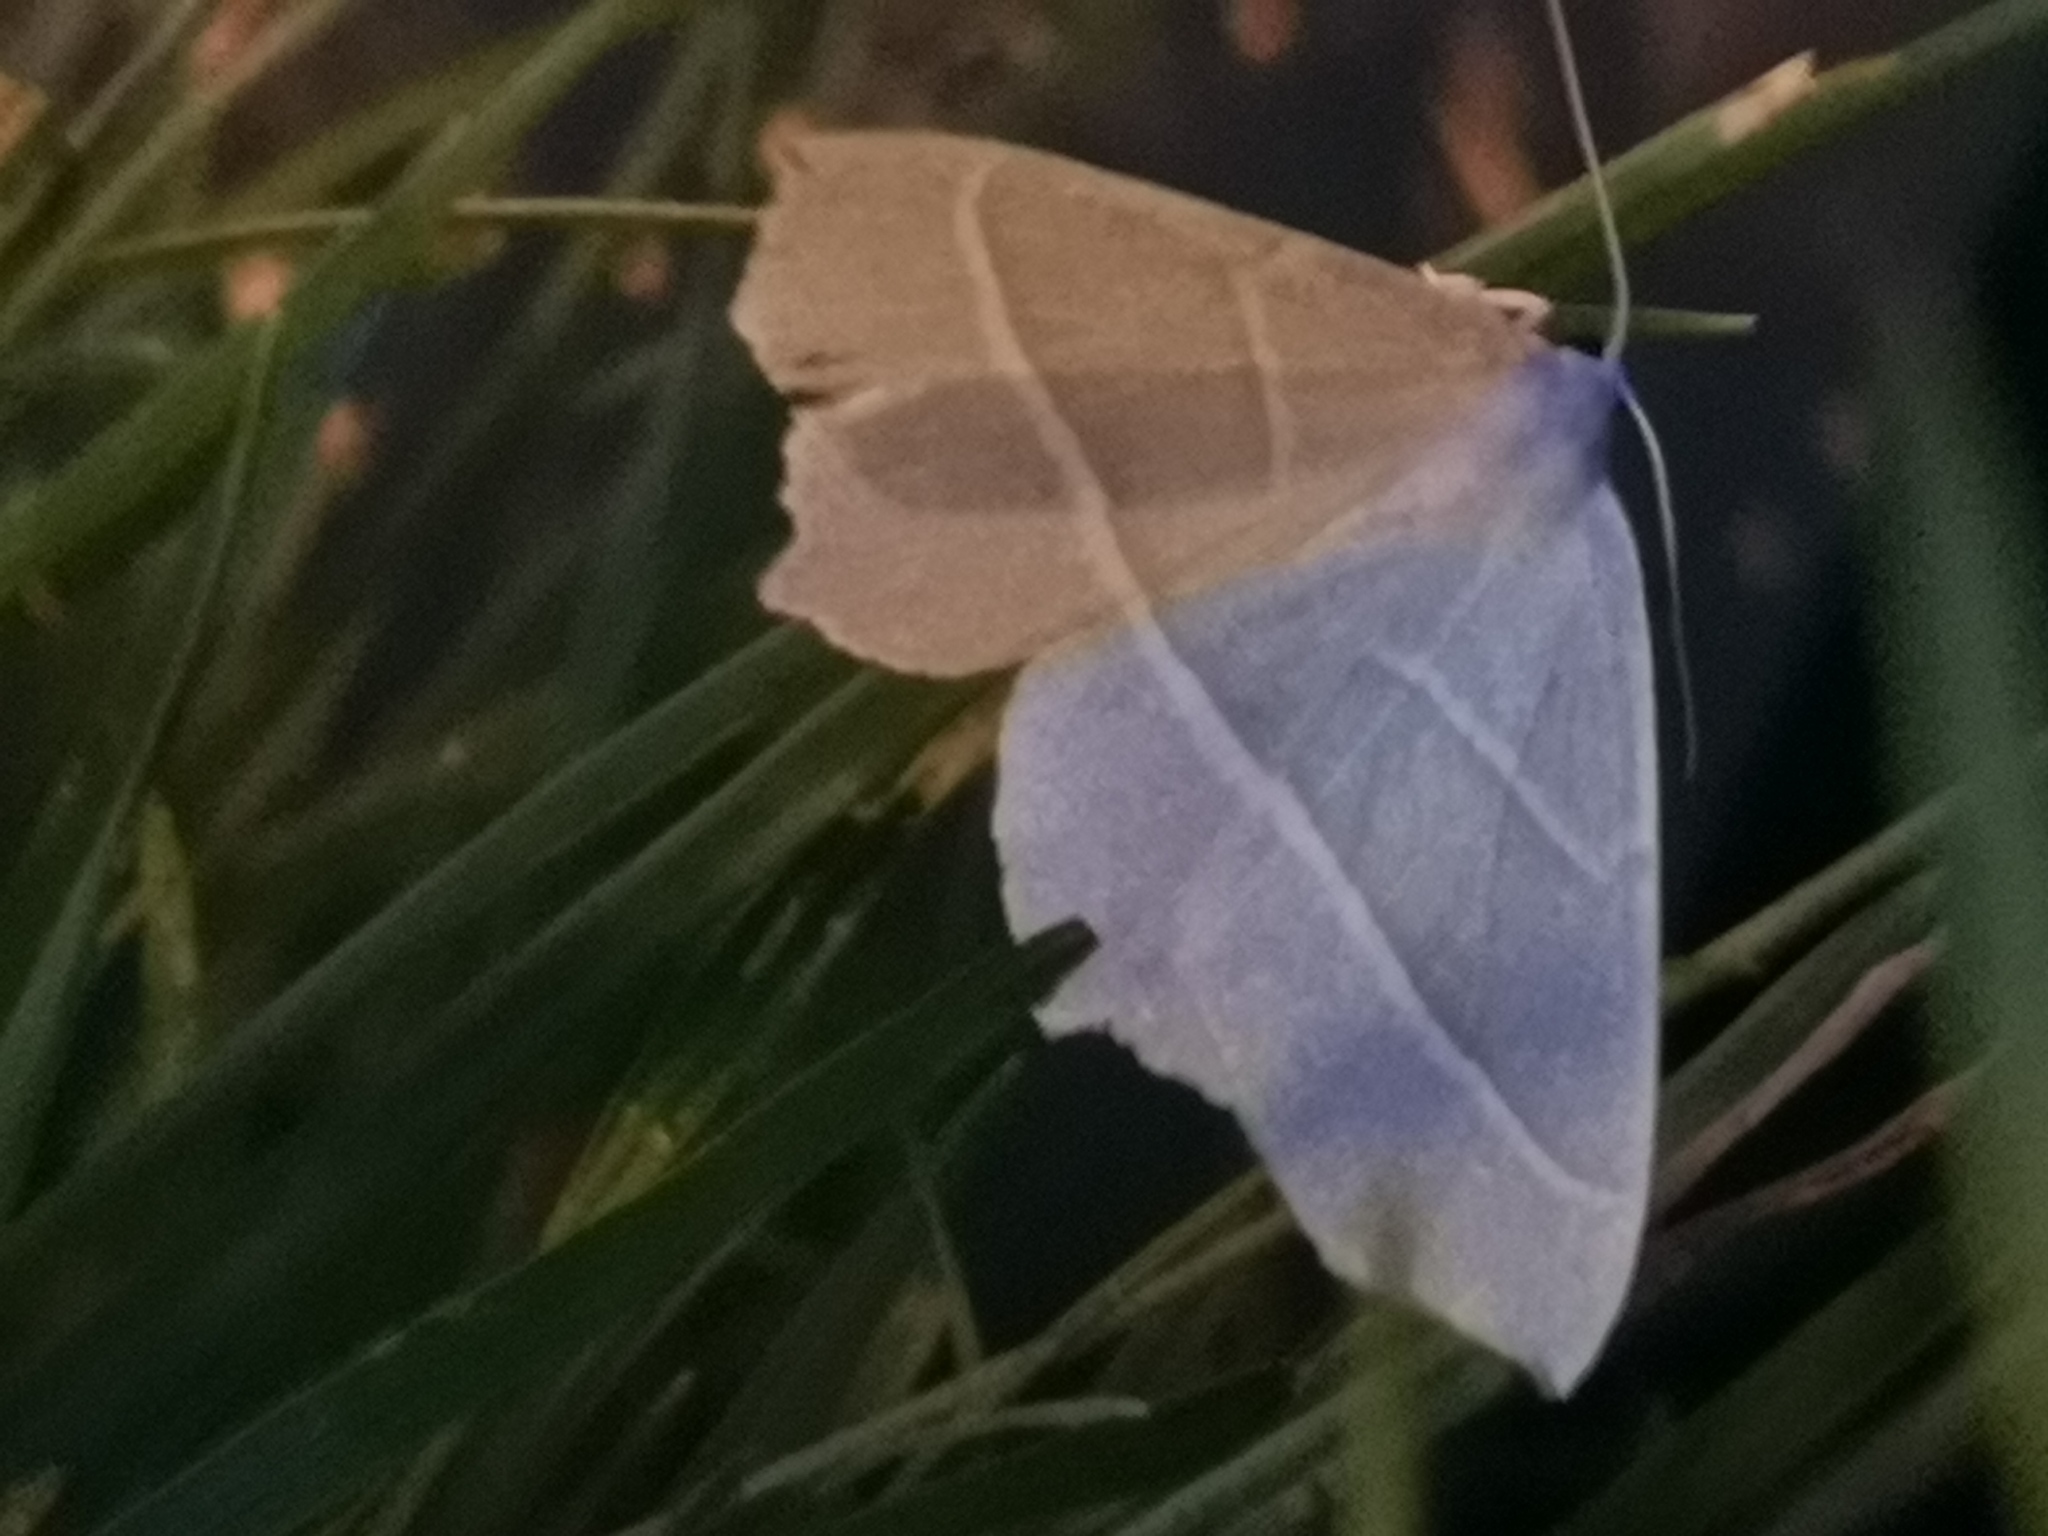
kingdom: Animalia
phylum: Arthropoda
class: Insecta
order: Lepidoptera
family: Geometridae
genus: Campaea
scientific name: Campaea margaritaria
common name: Light emerald
